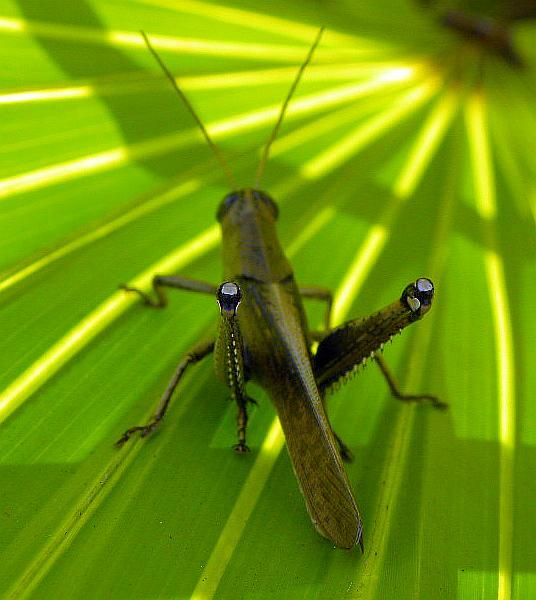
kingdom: Animalia
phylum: Arthropoda
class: Insecta
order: Orthoptera
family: Acrididae
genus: Schistocerca
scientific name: Schistocerca rubiginosa
